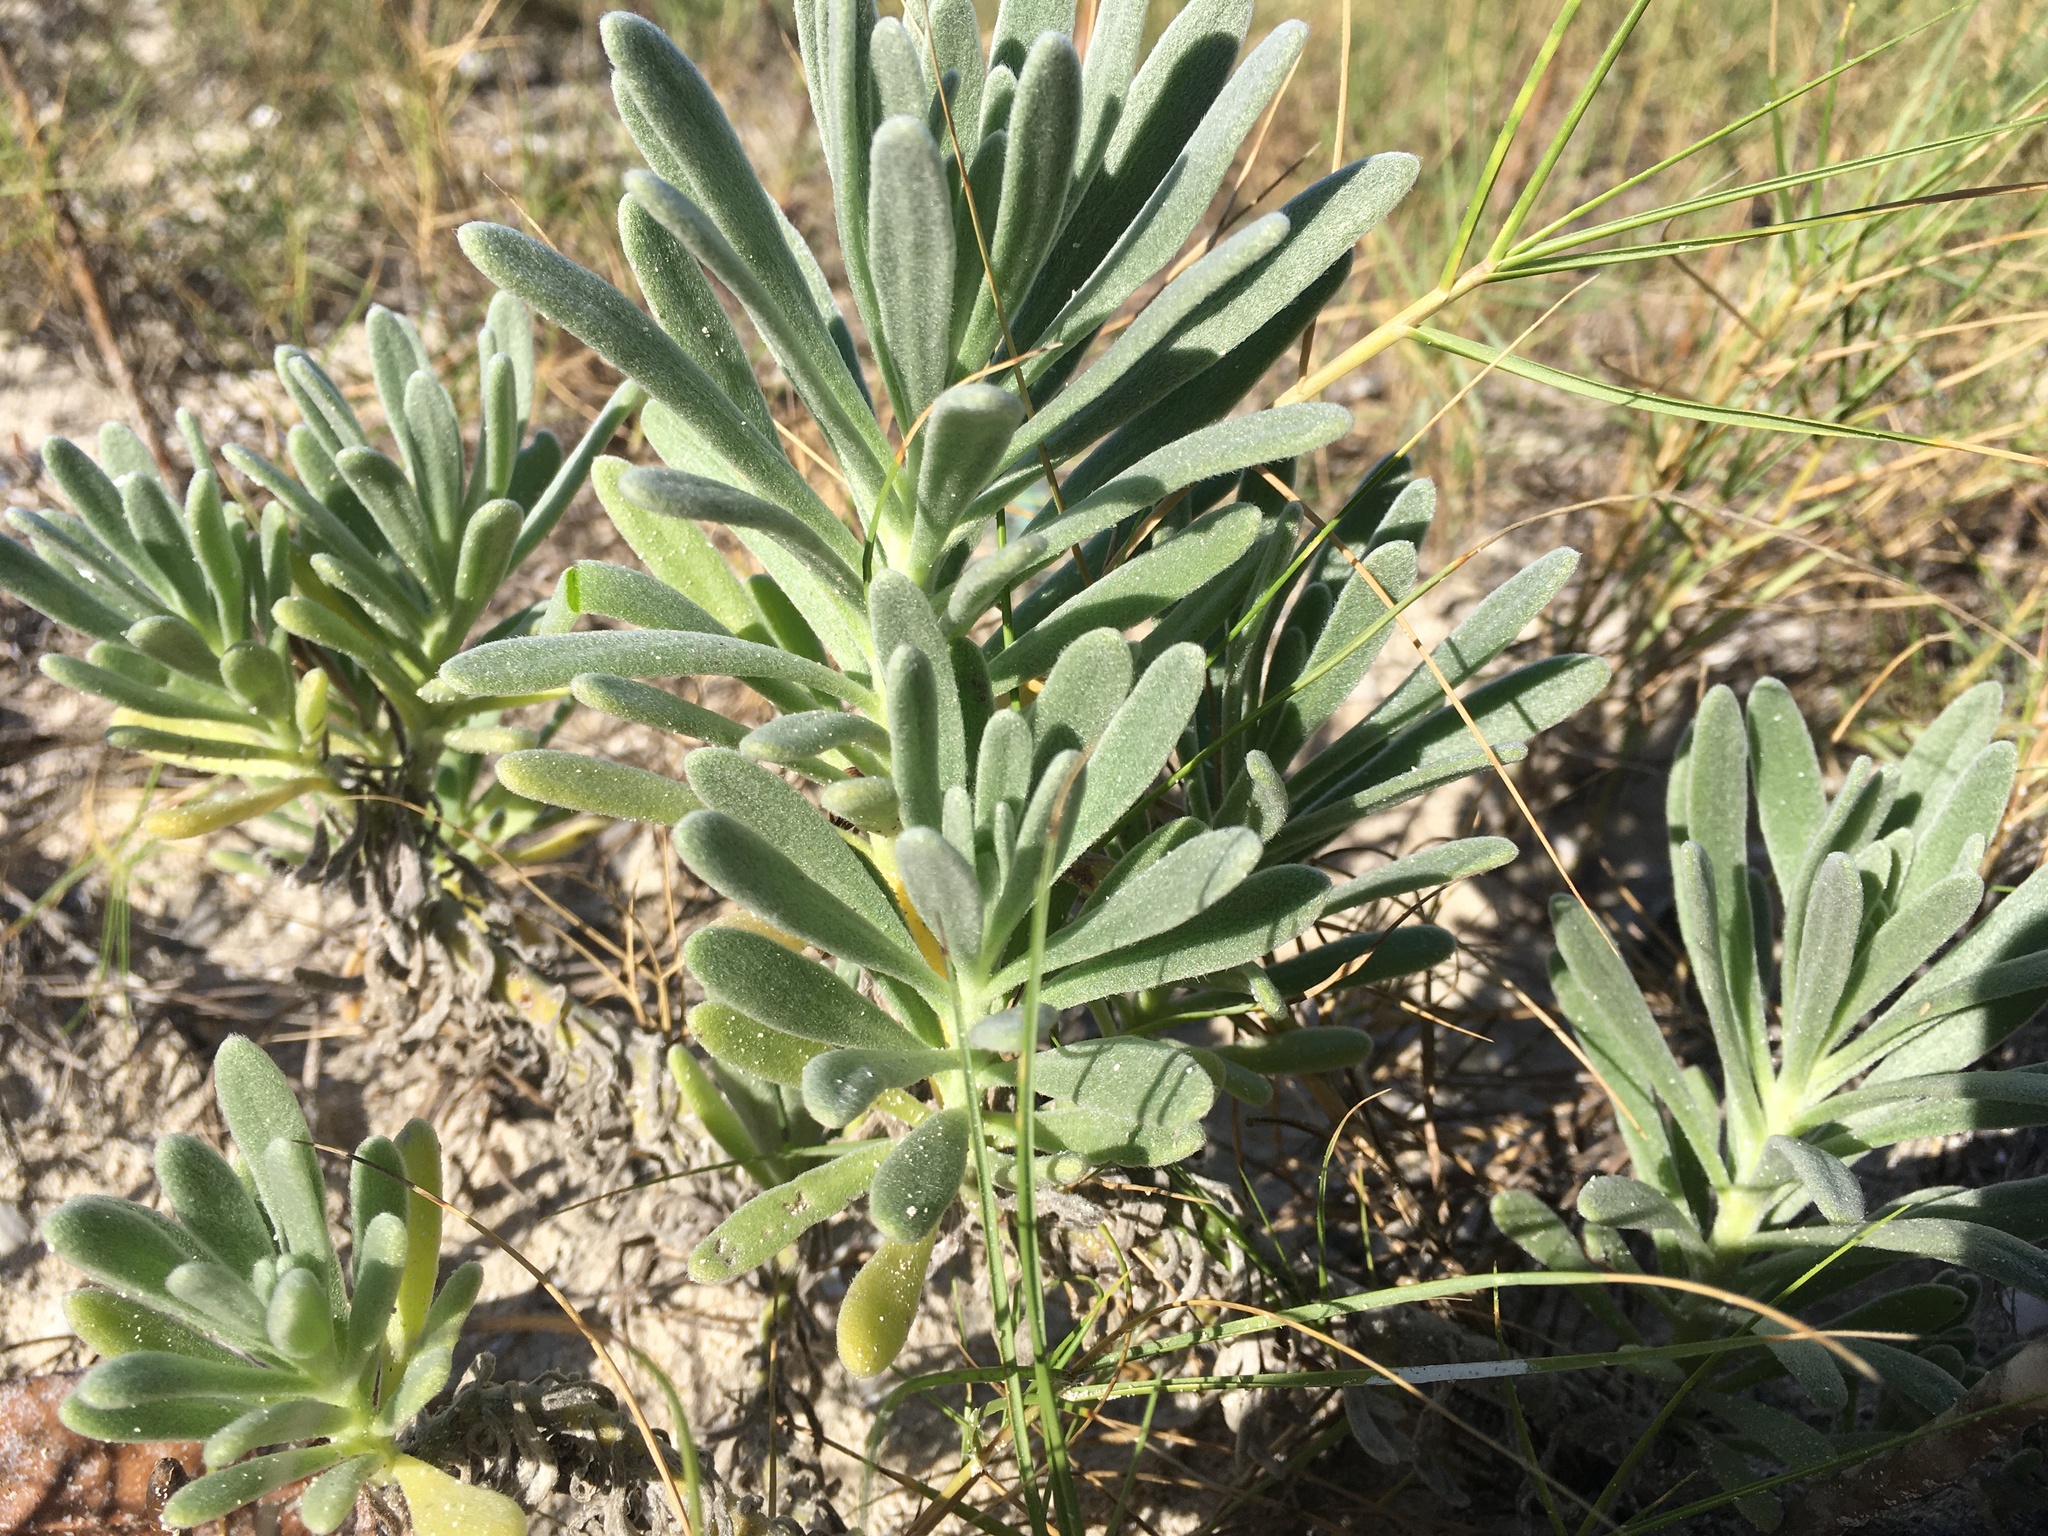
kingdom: Plantae
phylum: Tracheophyta
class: Magnoliopsida
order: Boraginales
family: Heliotropiaceae
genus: Tournefortia
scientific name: Tournefortia gnaphalodes
